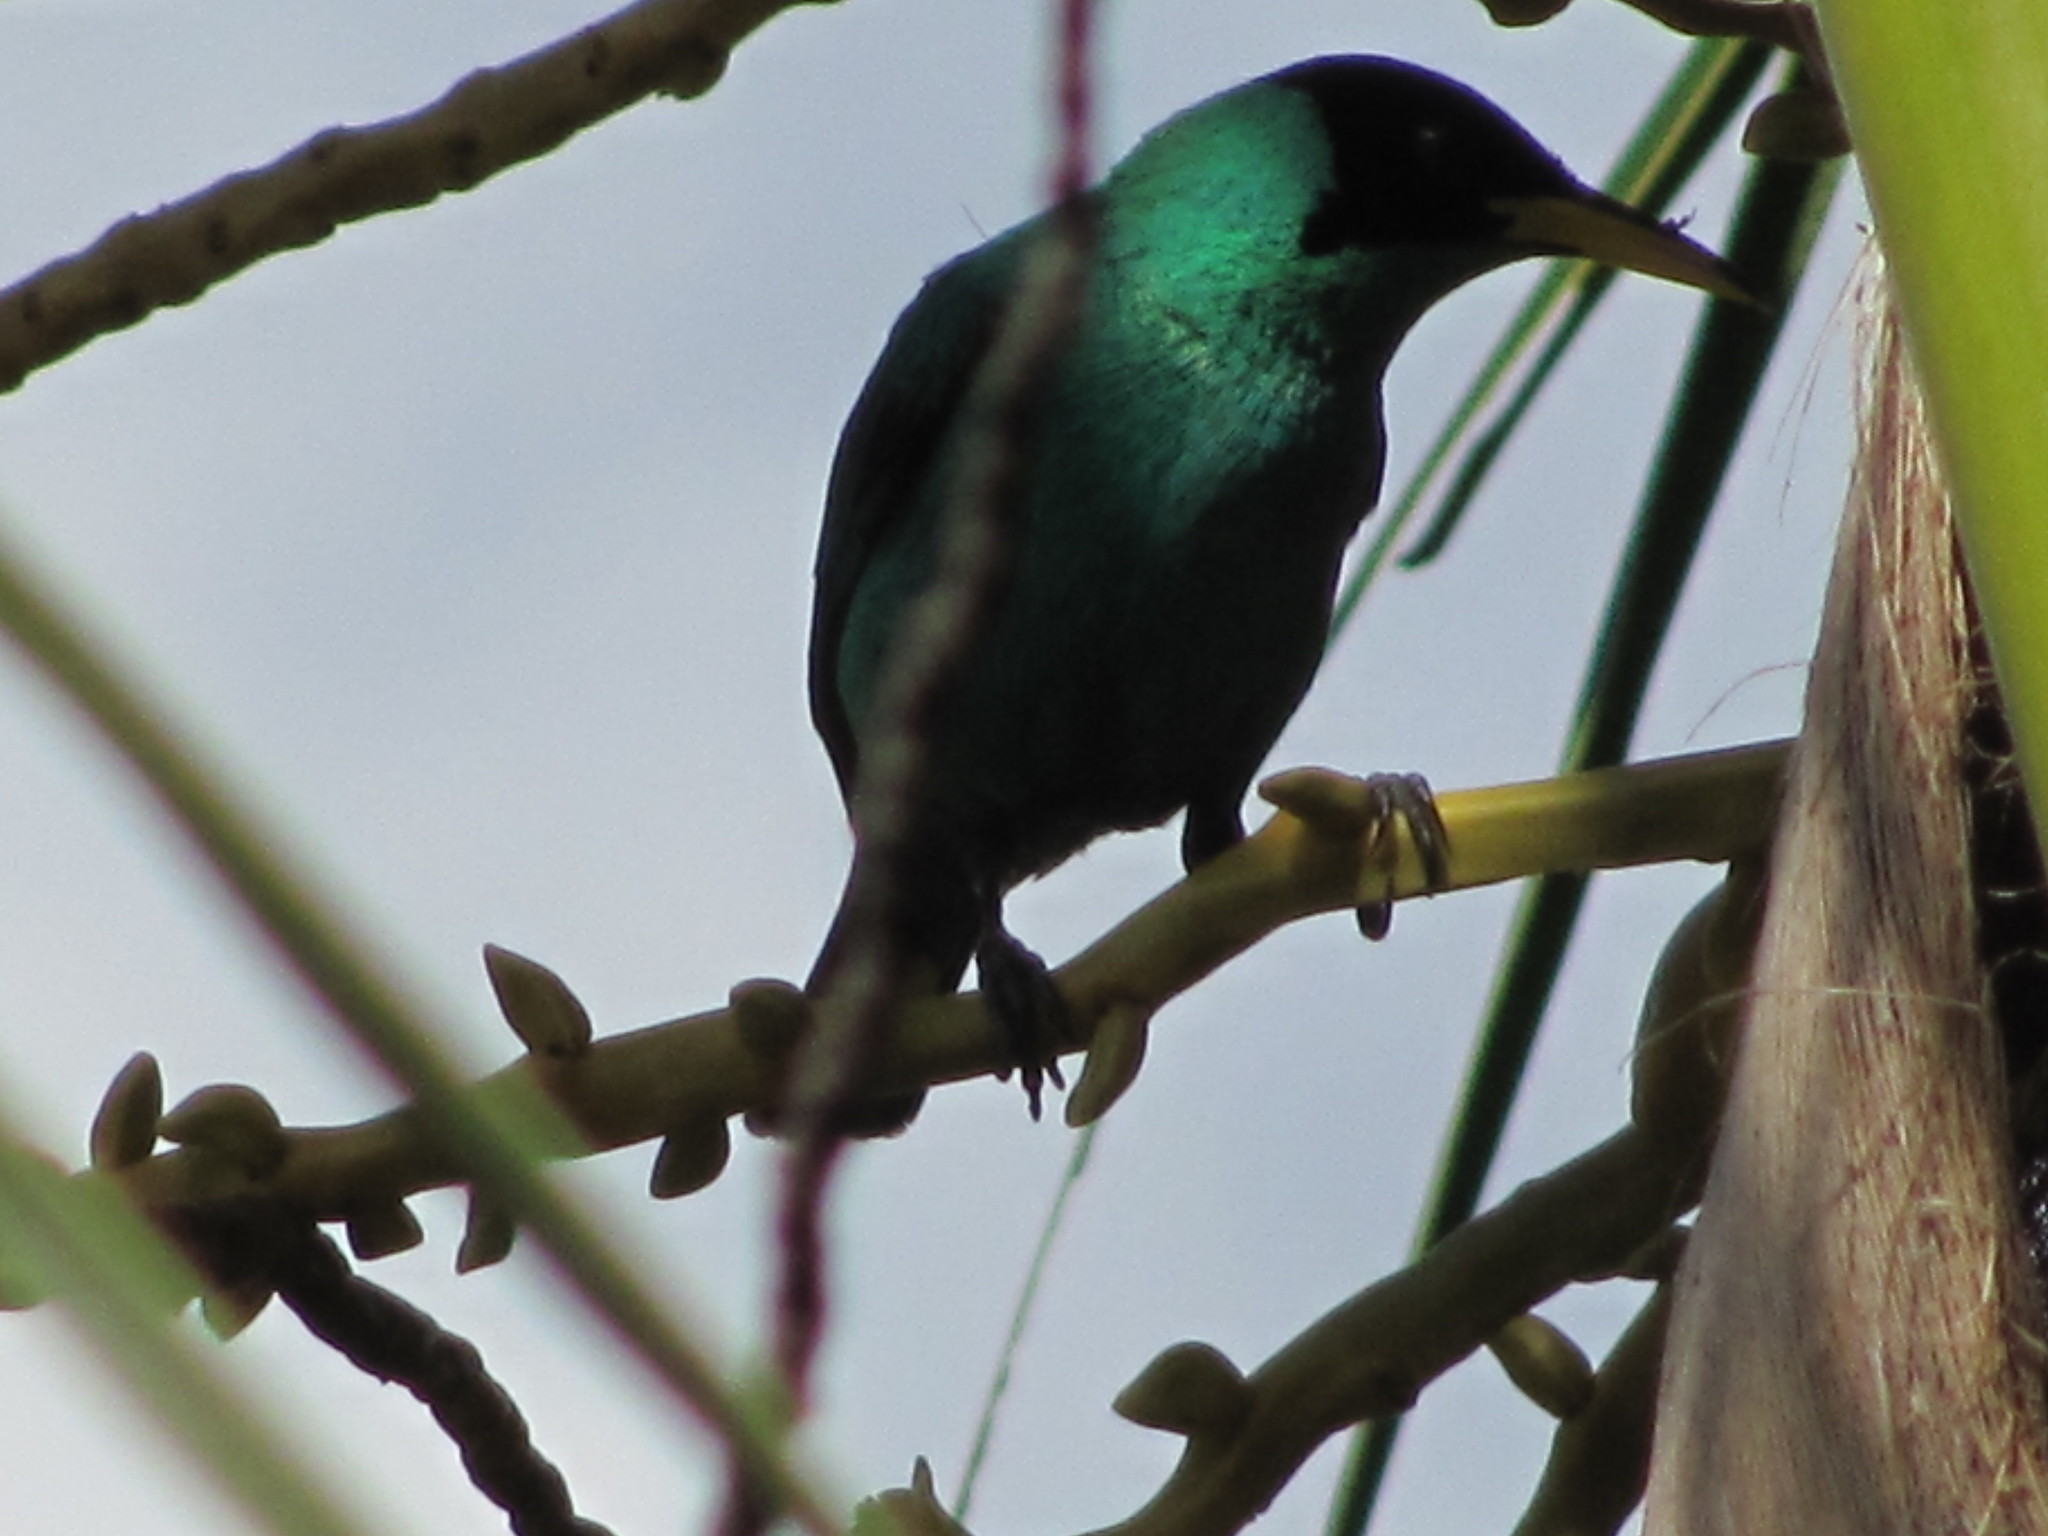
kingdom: Animalia
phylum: Chordata
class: Aves
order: Passeriformes
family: Thraupidae
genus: Chlorophanes
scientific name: Chlorophanes spiza
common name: Green honeycreeper
